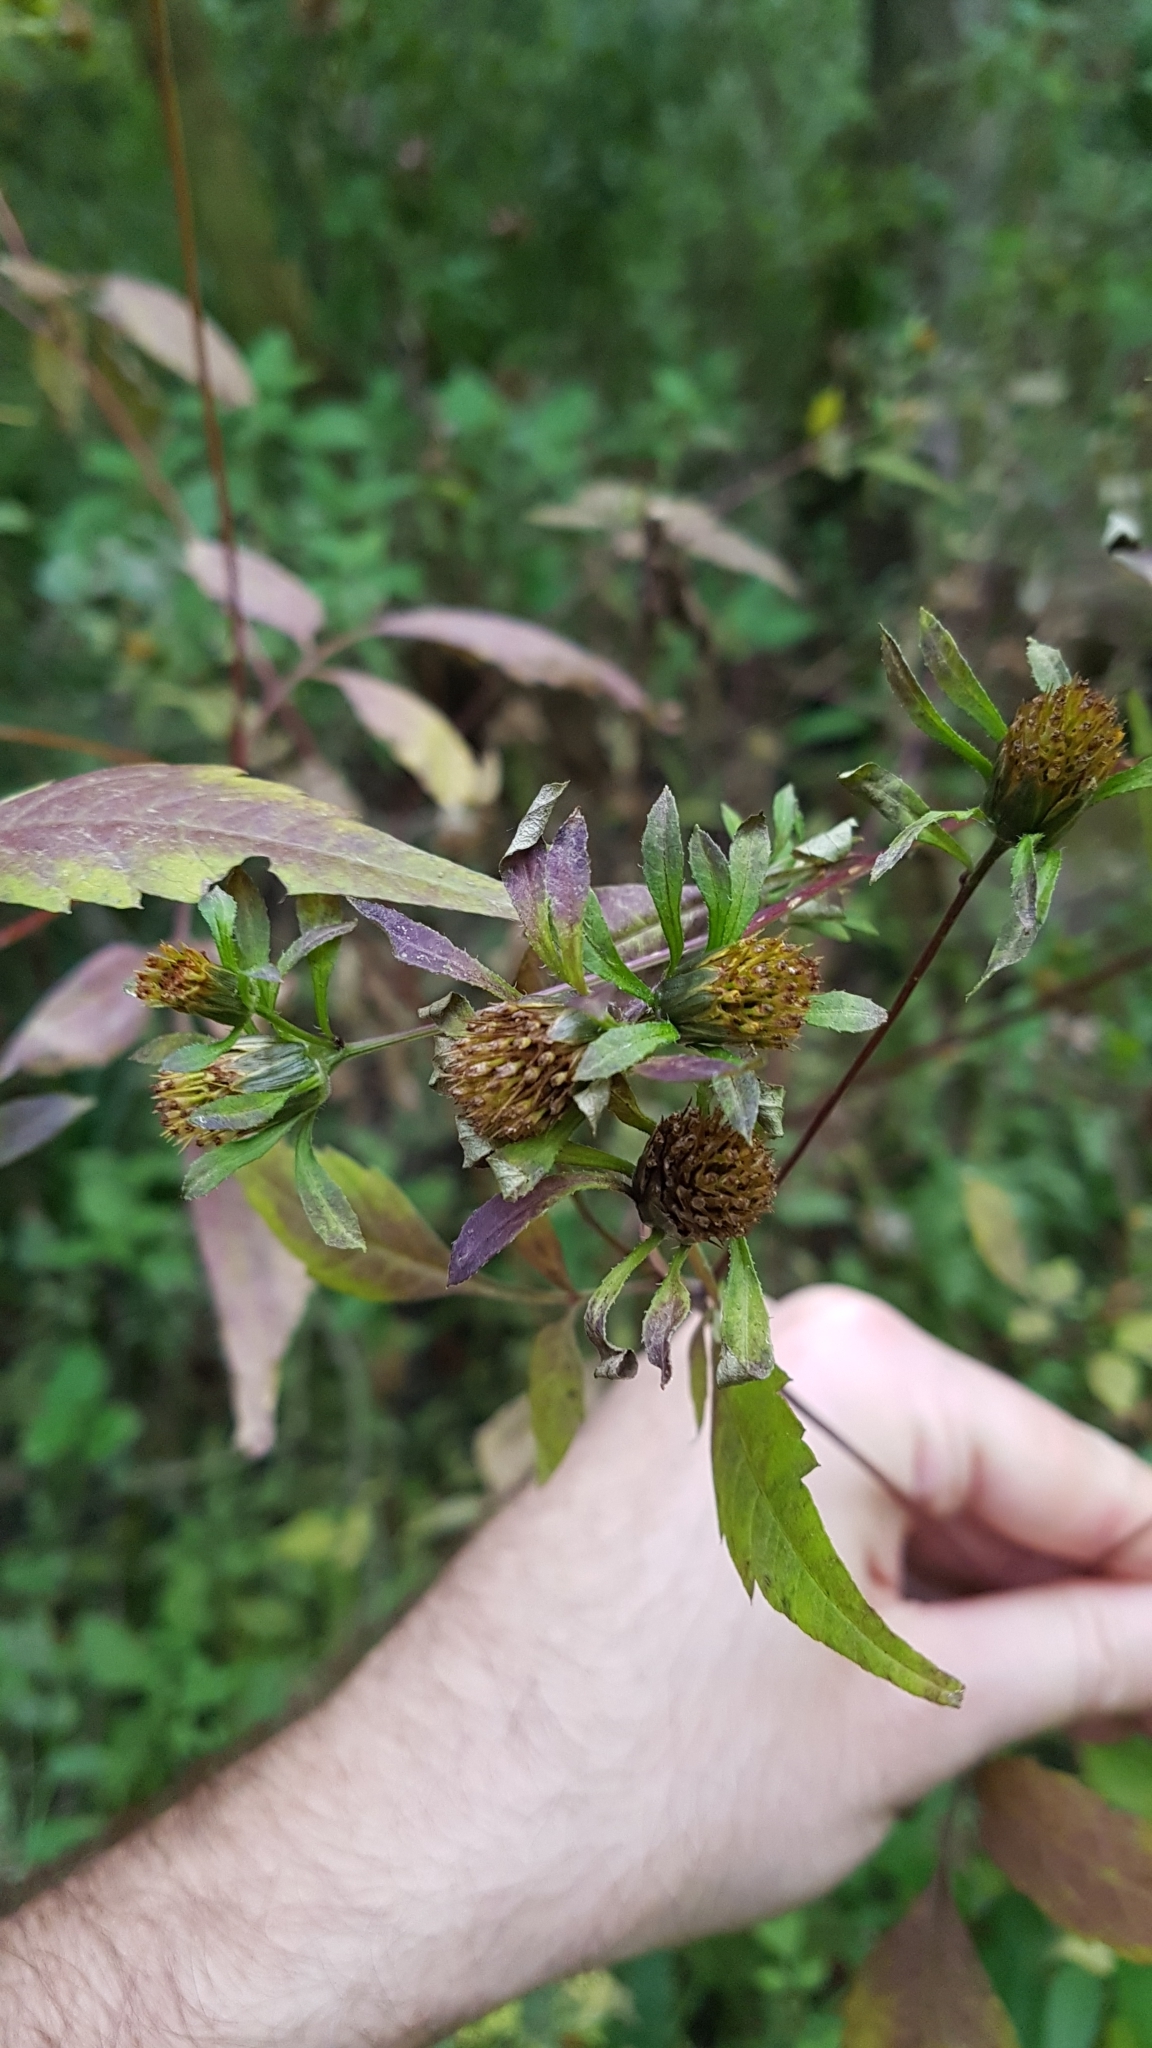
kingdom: Plantae
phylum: Tracheophyta
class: Magnoliopsida
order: Asterales
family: Asteraceae
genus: Bidens
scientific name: Bidens frondosa
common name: Beggarticks
